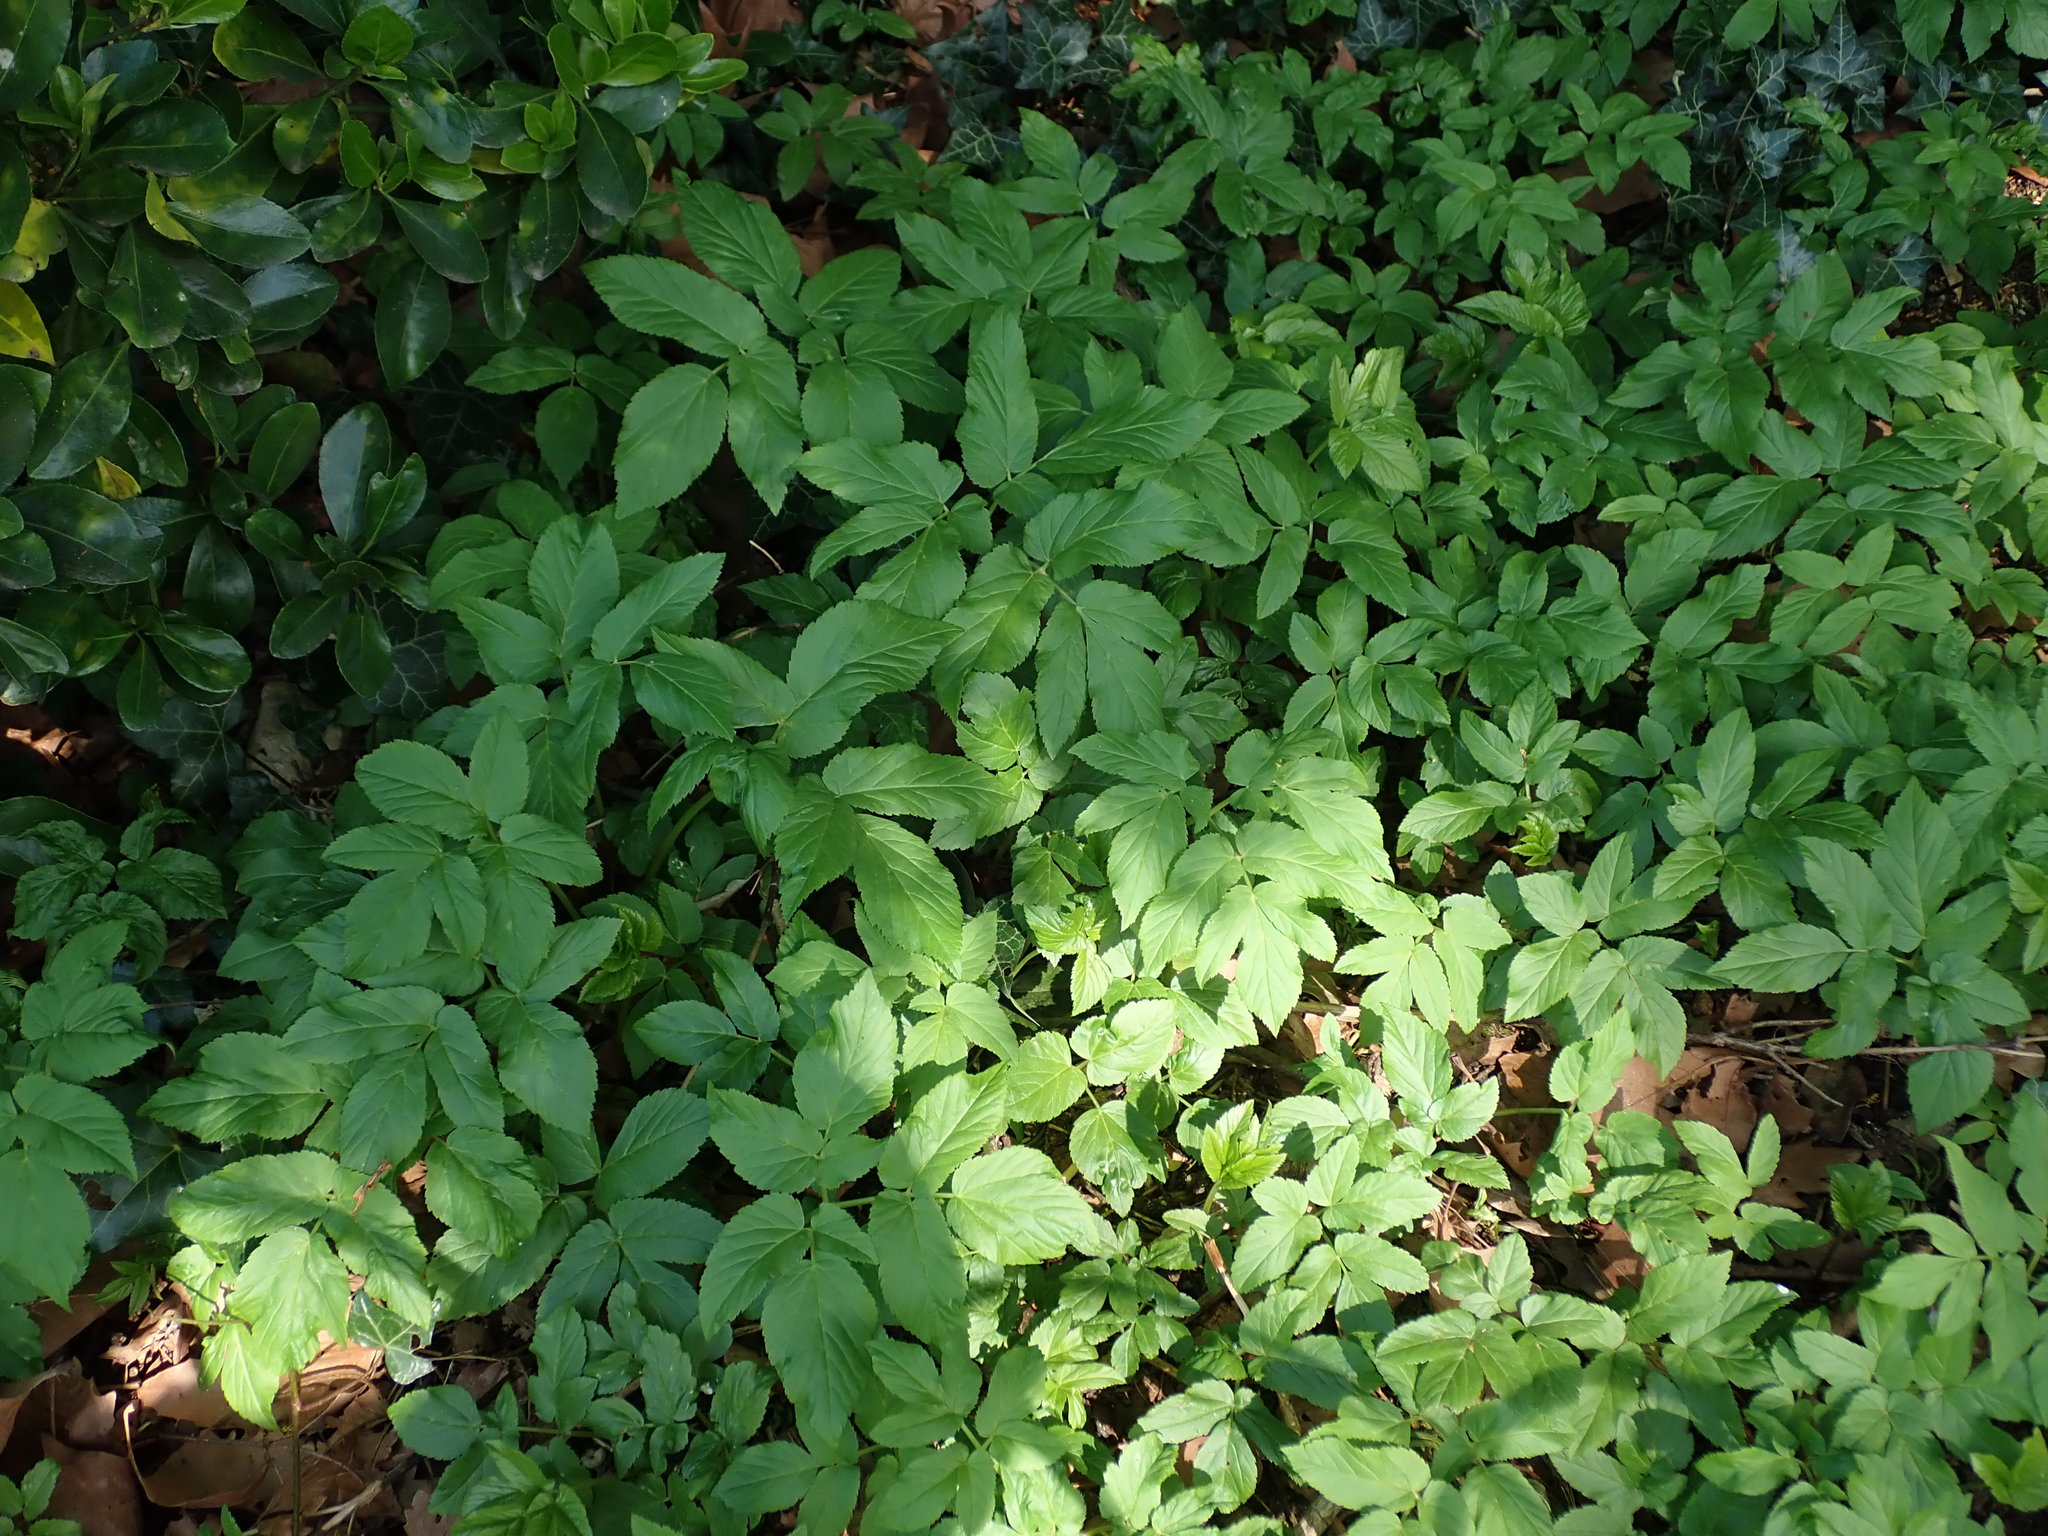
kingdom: Plantae
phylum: Tracheophyta
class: Magnoliopsida
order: Apiales
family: Apiaceae
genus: Aegopodium
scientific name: Aegopodium podagraria
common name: Ground-elder
